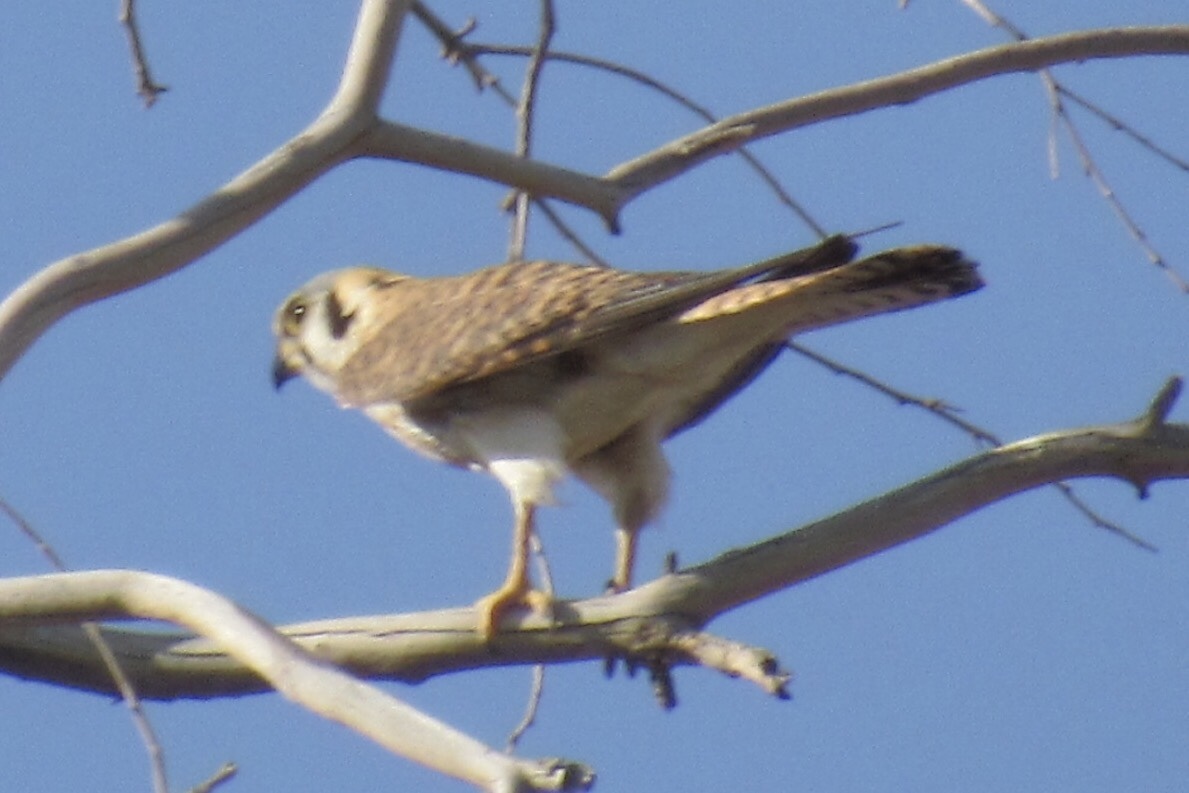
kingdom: Animalia
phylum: Chordata
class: Aves
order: Falconiformes
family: Falconidae
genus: Falco
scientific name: Falco sparverius
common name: American kestrel
